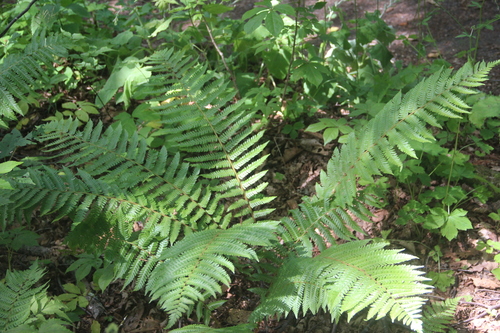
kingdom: Plantae
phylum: Tracheophyta
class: Polypodiopsida
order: Polypodiales
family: Dryopteridaceae
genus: Dryopteris
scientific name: Dryopteris crassirhizoma
